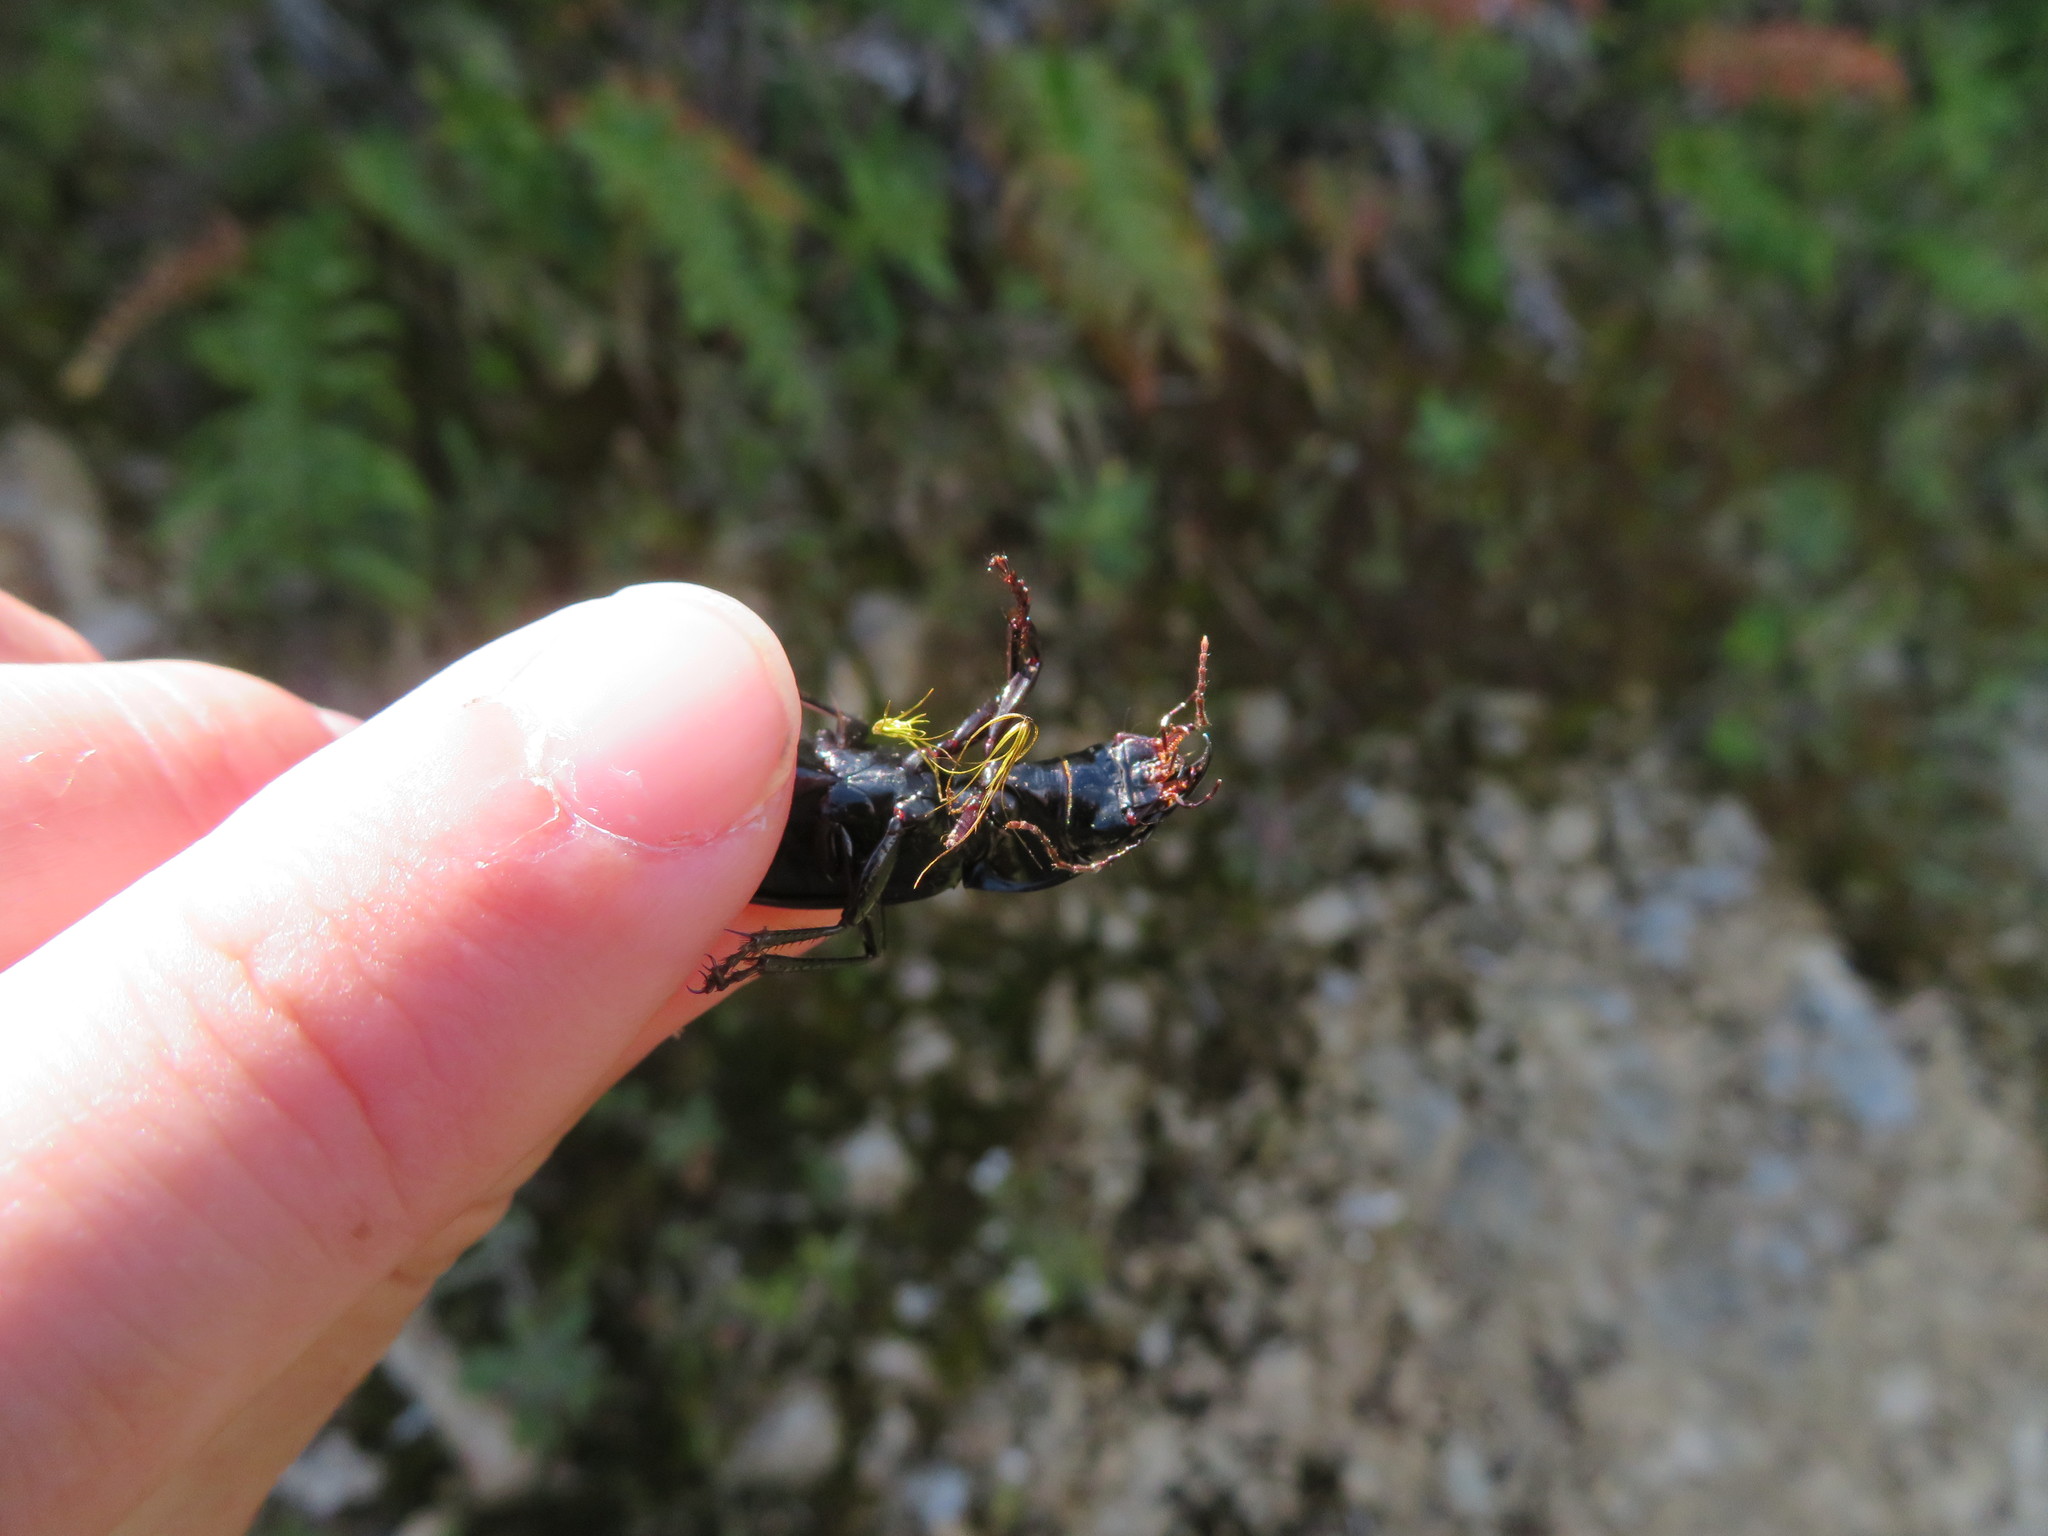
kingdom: Animalia
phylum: Arthropoda
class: Insecta
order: Coleoptera
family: Carabidae
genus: Plocamostethus
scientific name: Plocamostethus planiusculus
